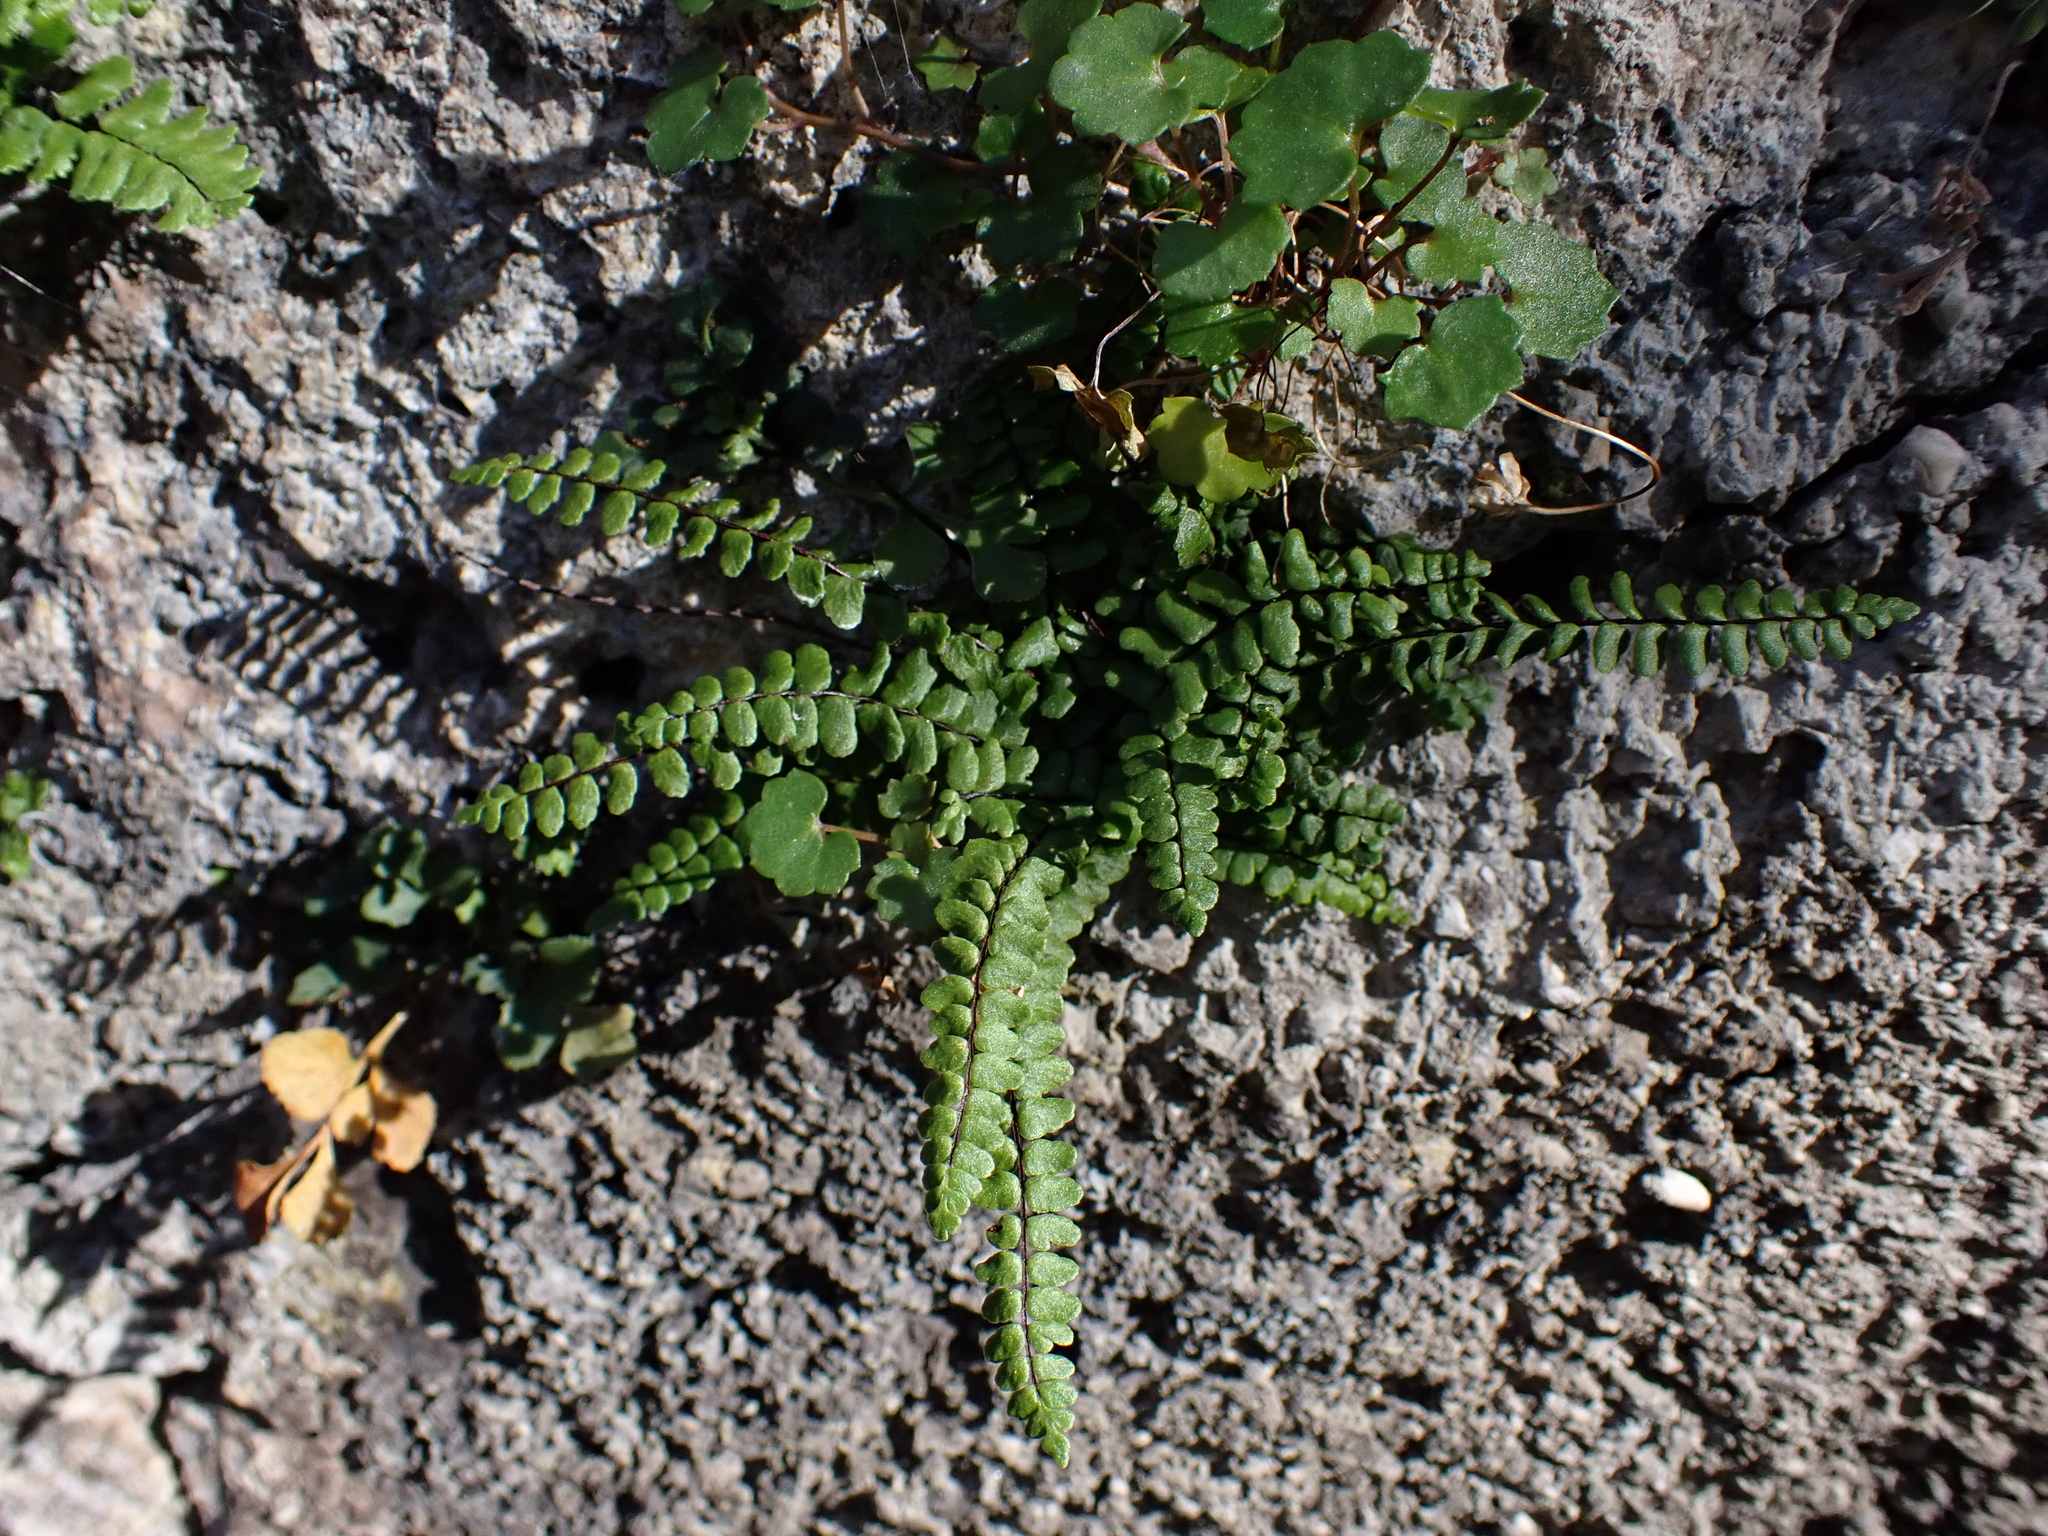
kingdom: Plantae
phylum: Tracheophyta
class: Polypodiopsida
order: Polypodiales
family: Aspleniaceae
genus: Asplenium
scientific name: Asplenium trichomanes
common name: Maidenhair spleenwort
